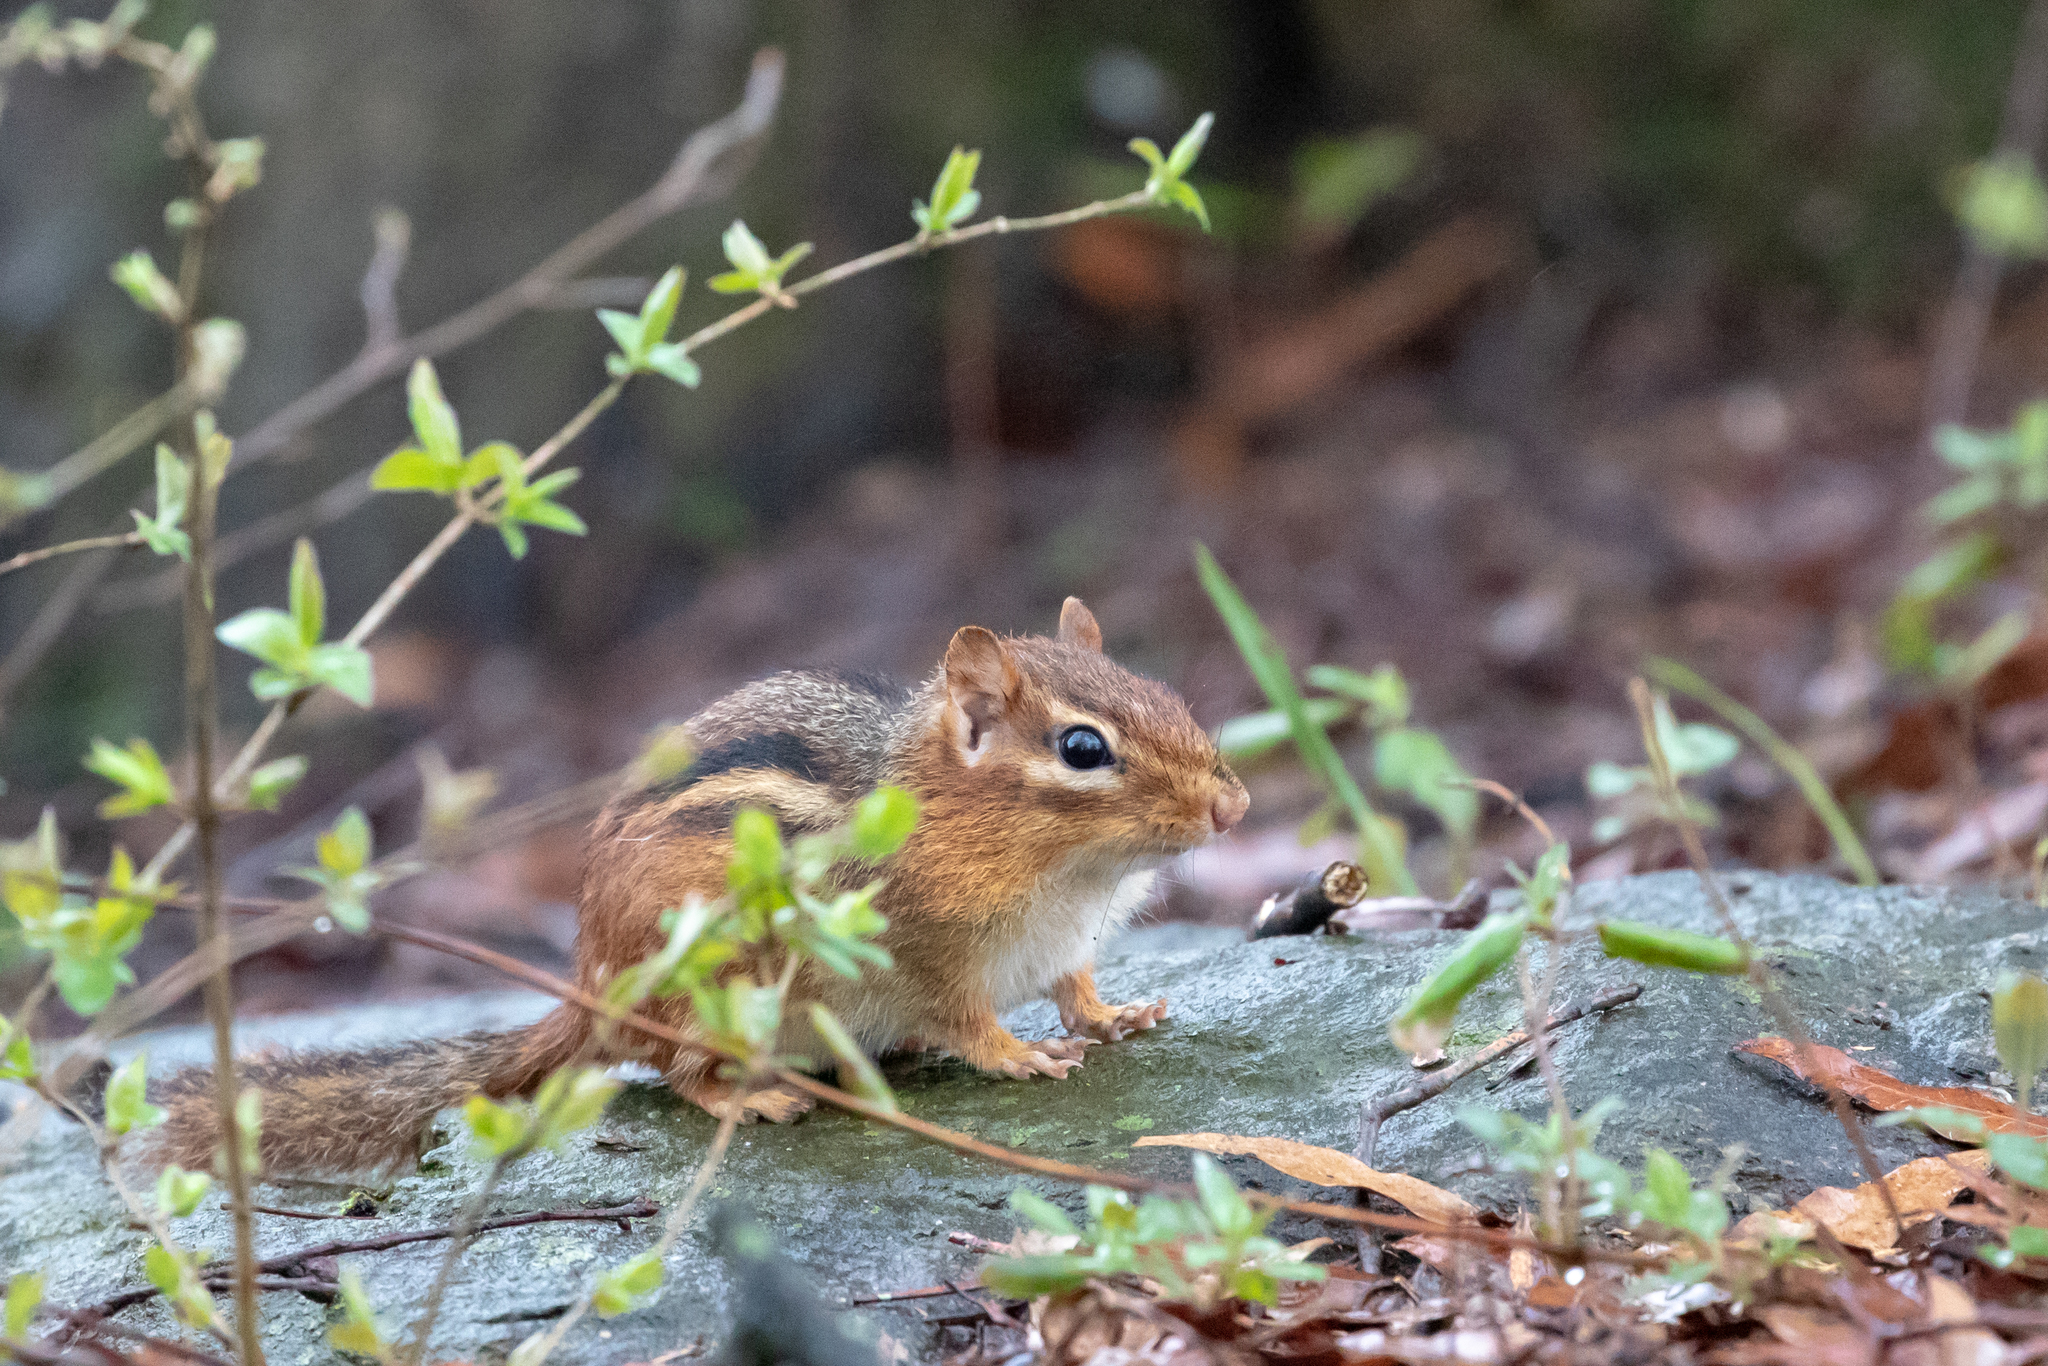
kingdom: Animalia
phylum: Chordata
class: Mammalia
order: Rodentia
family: Sciuridae
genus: Tamias
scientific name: Tamias striatus
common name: Eastern chipmunk
